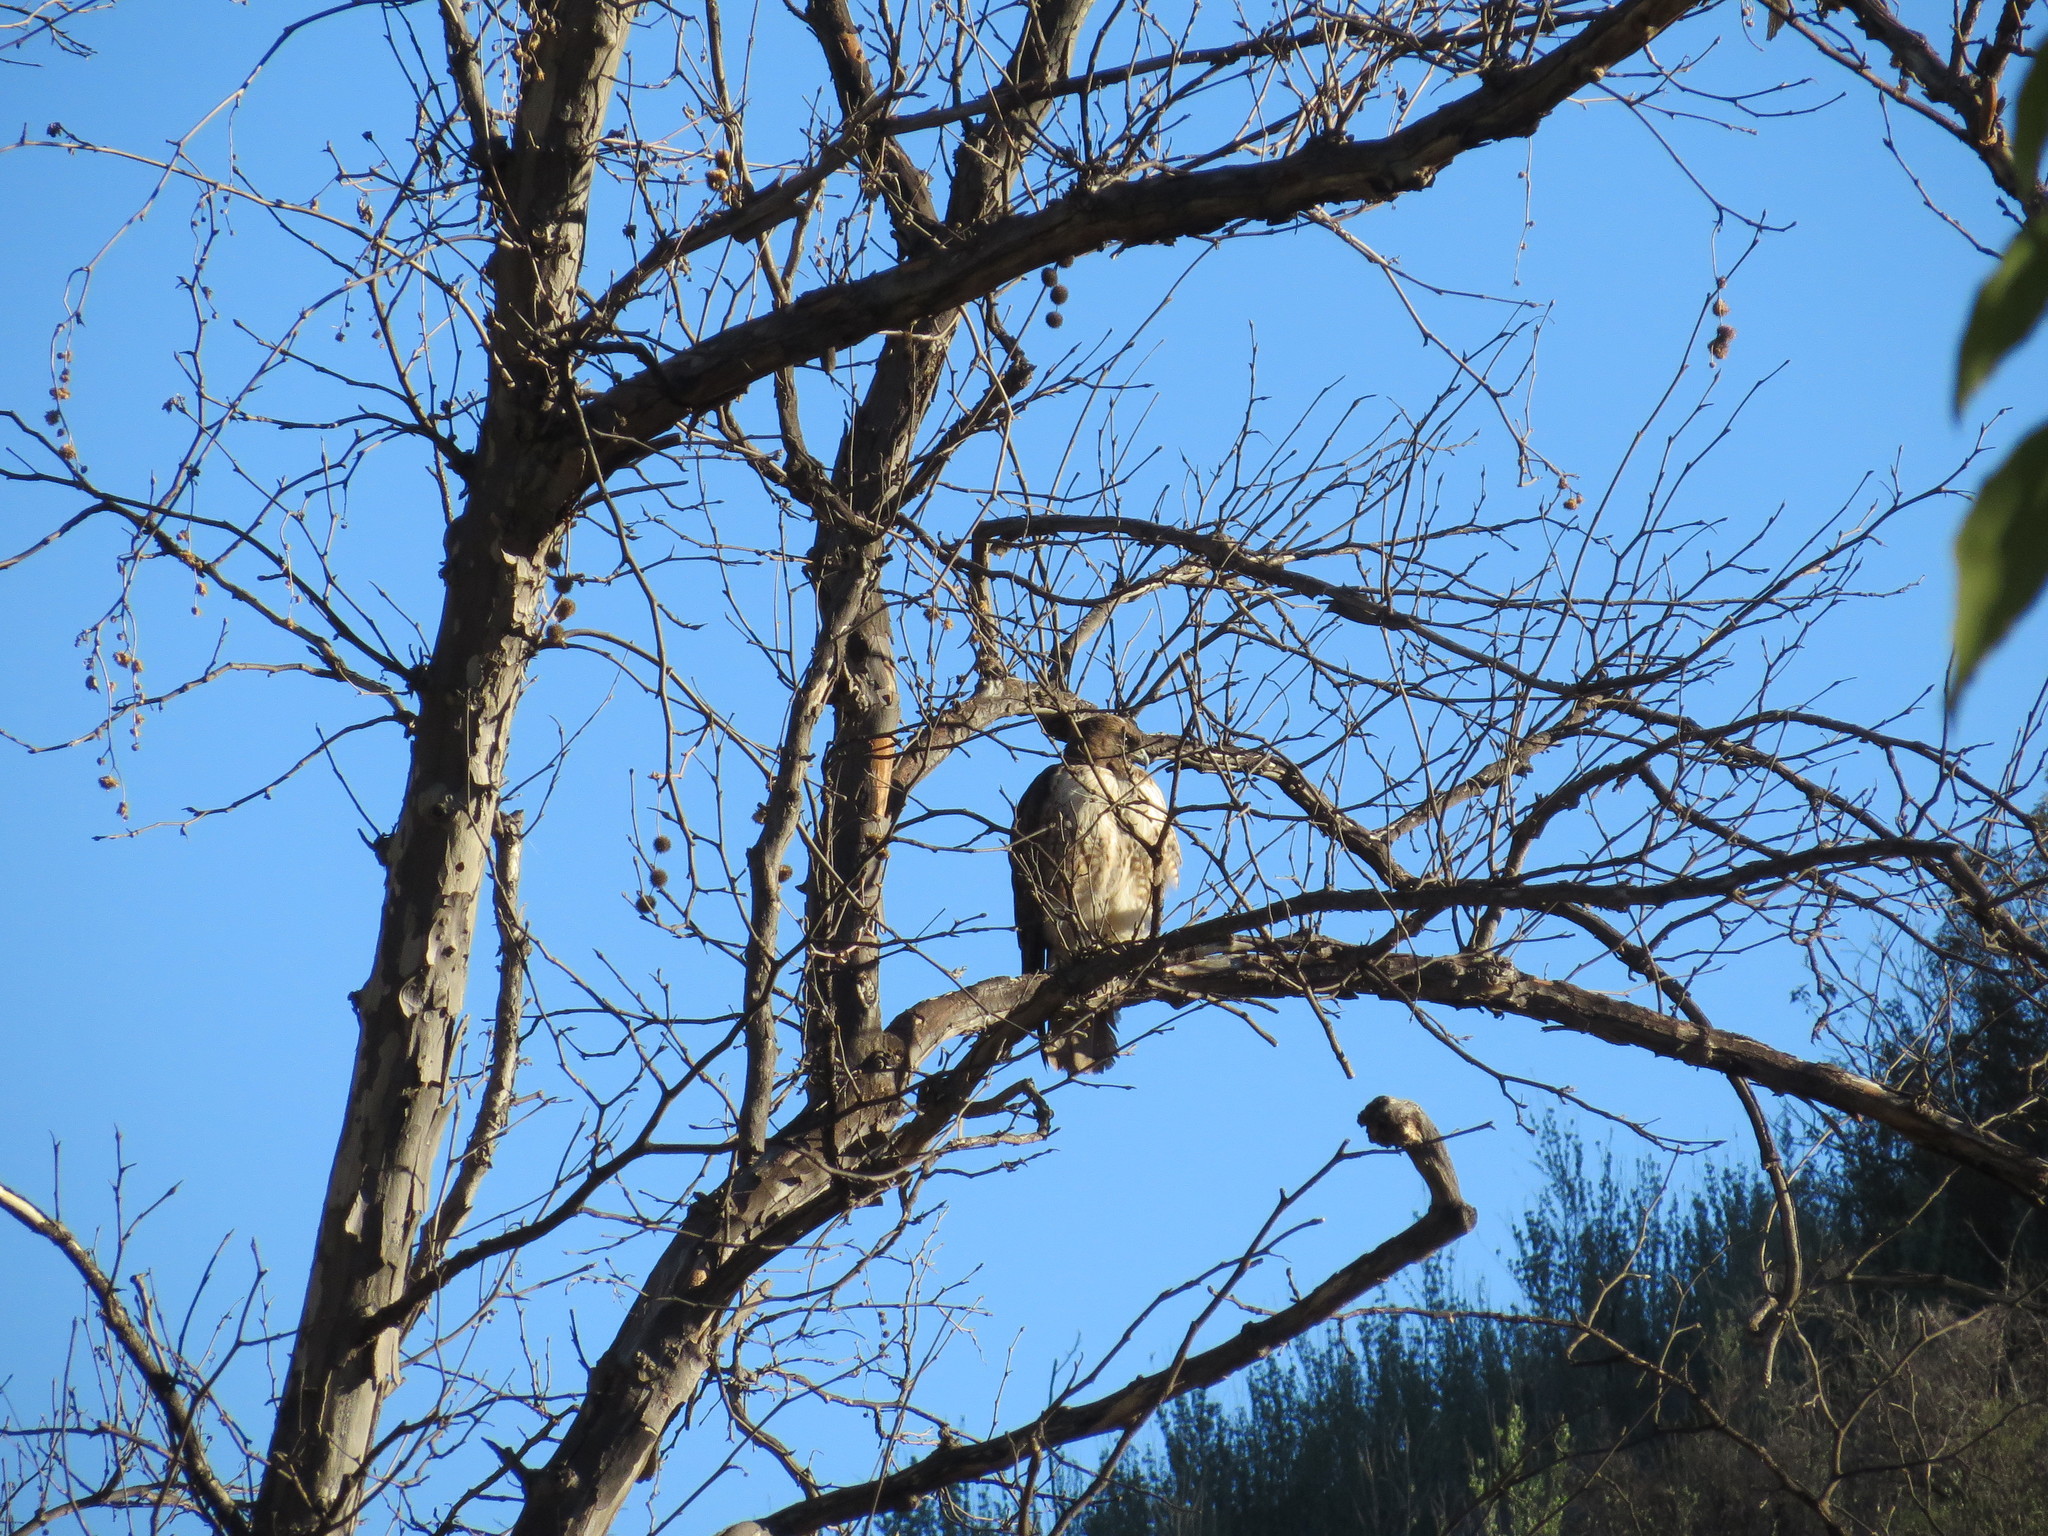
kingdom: Animalia
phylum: Chordata
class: Aves
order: Accipitriformes
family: Accipitridae
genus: Buteo
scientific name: Buteo jamaicensis
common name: Red-tailed hawk
